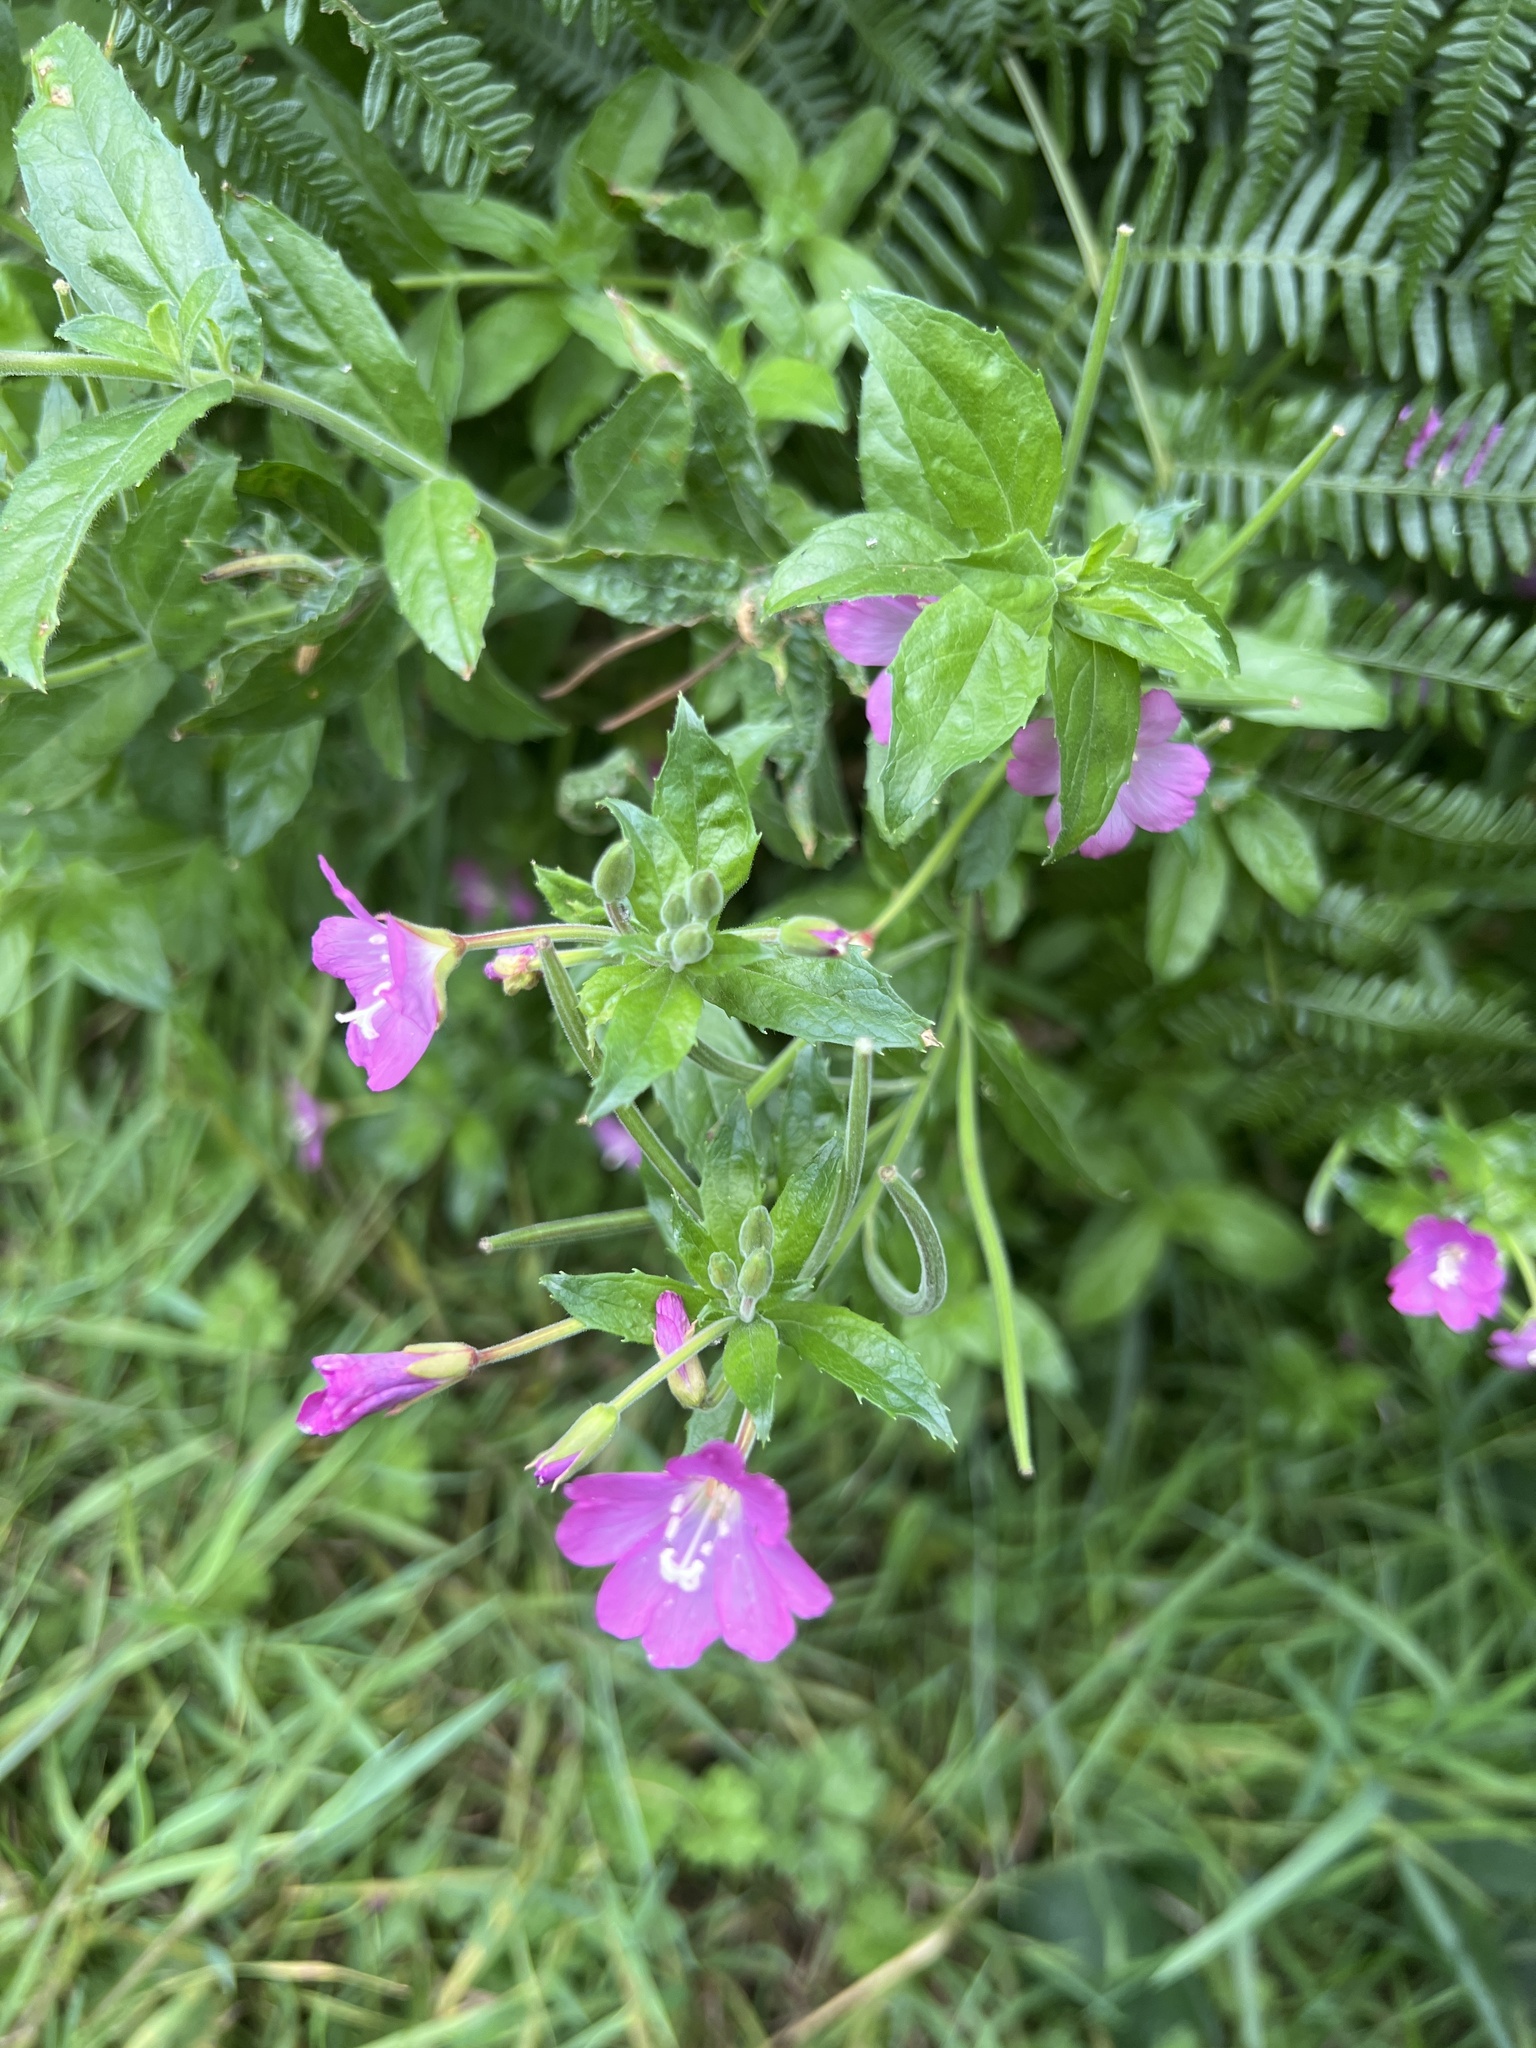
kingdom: Plantae
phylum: Tracheophyta
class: Magnoliopsida
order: Myrtales
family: Onagraceae
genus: Epilobium
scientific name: Epilobium hirsutum
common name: Great willowherb
